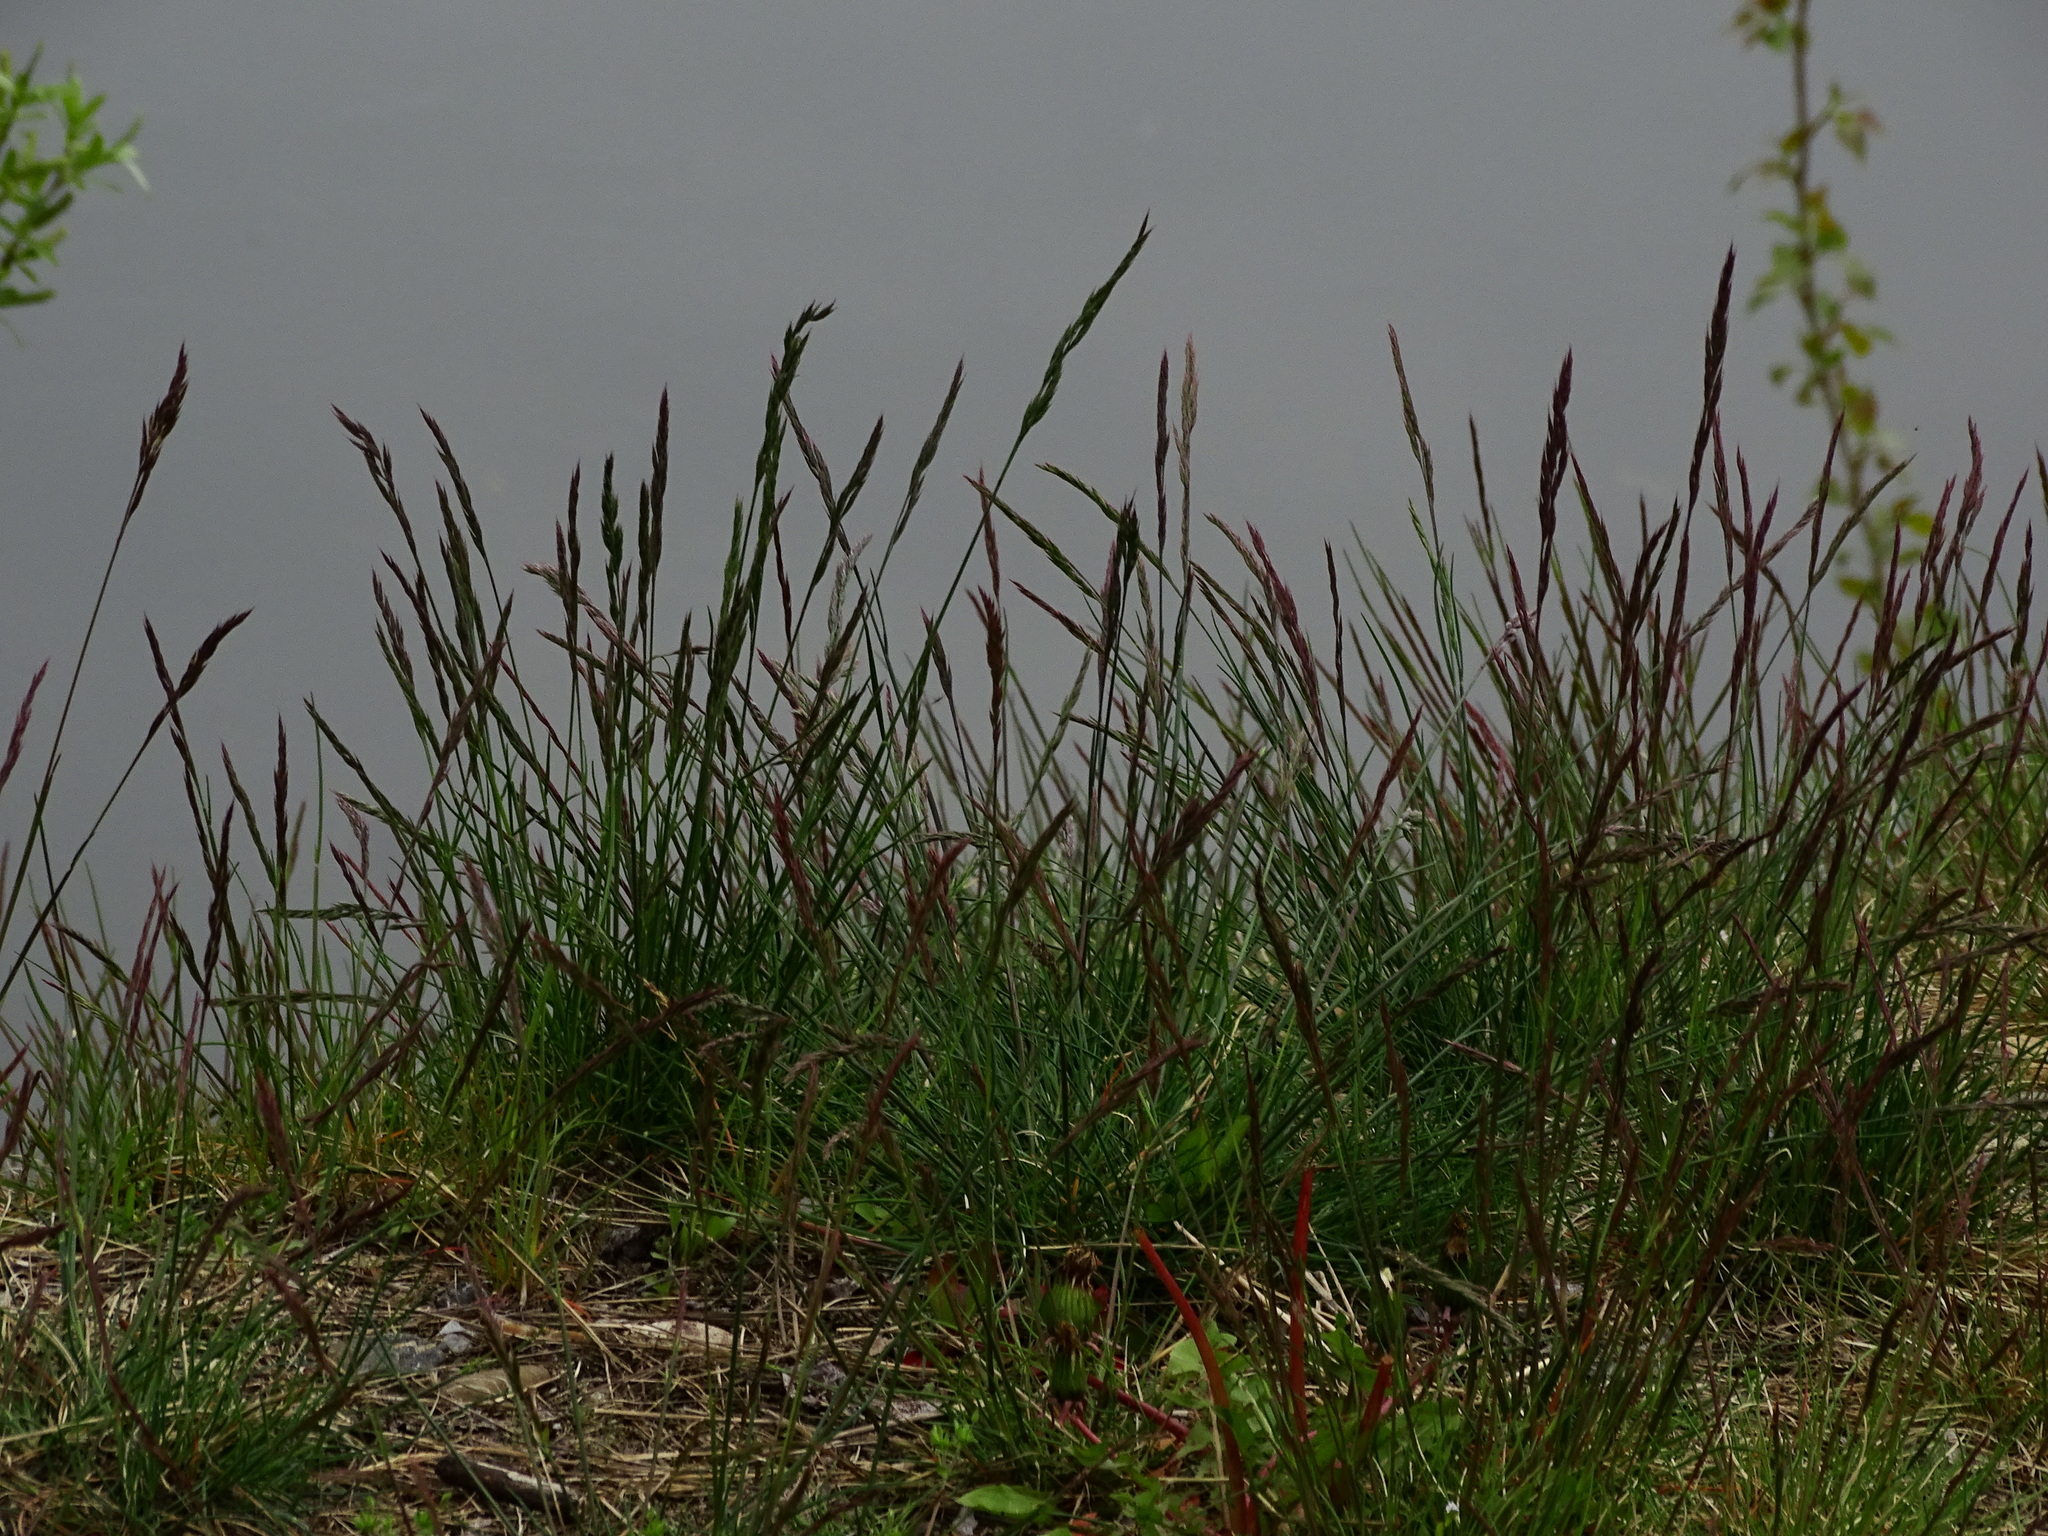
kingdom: Plantae
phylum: Tracheophyta
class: Liliopsida
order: Poales
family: Poaceae
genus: Festuca
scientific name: Festuca rupicola
